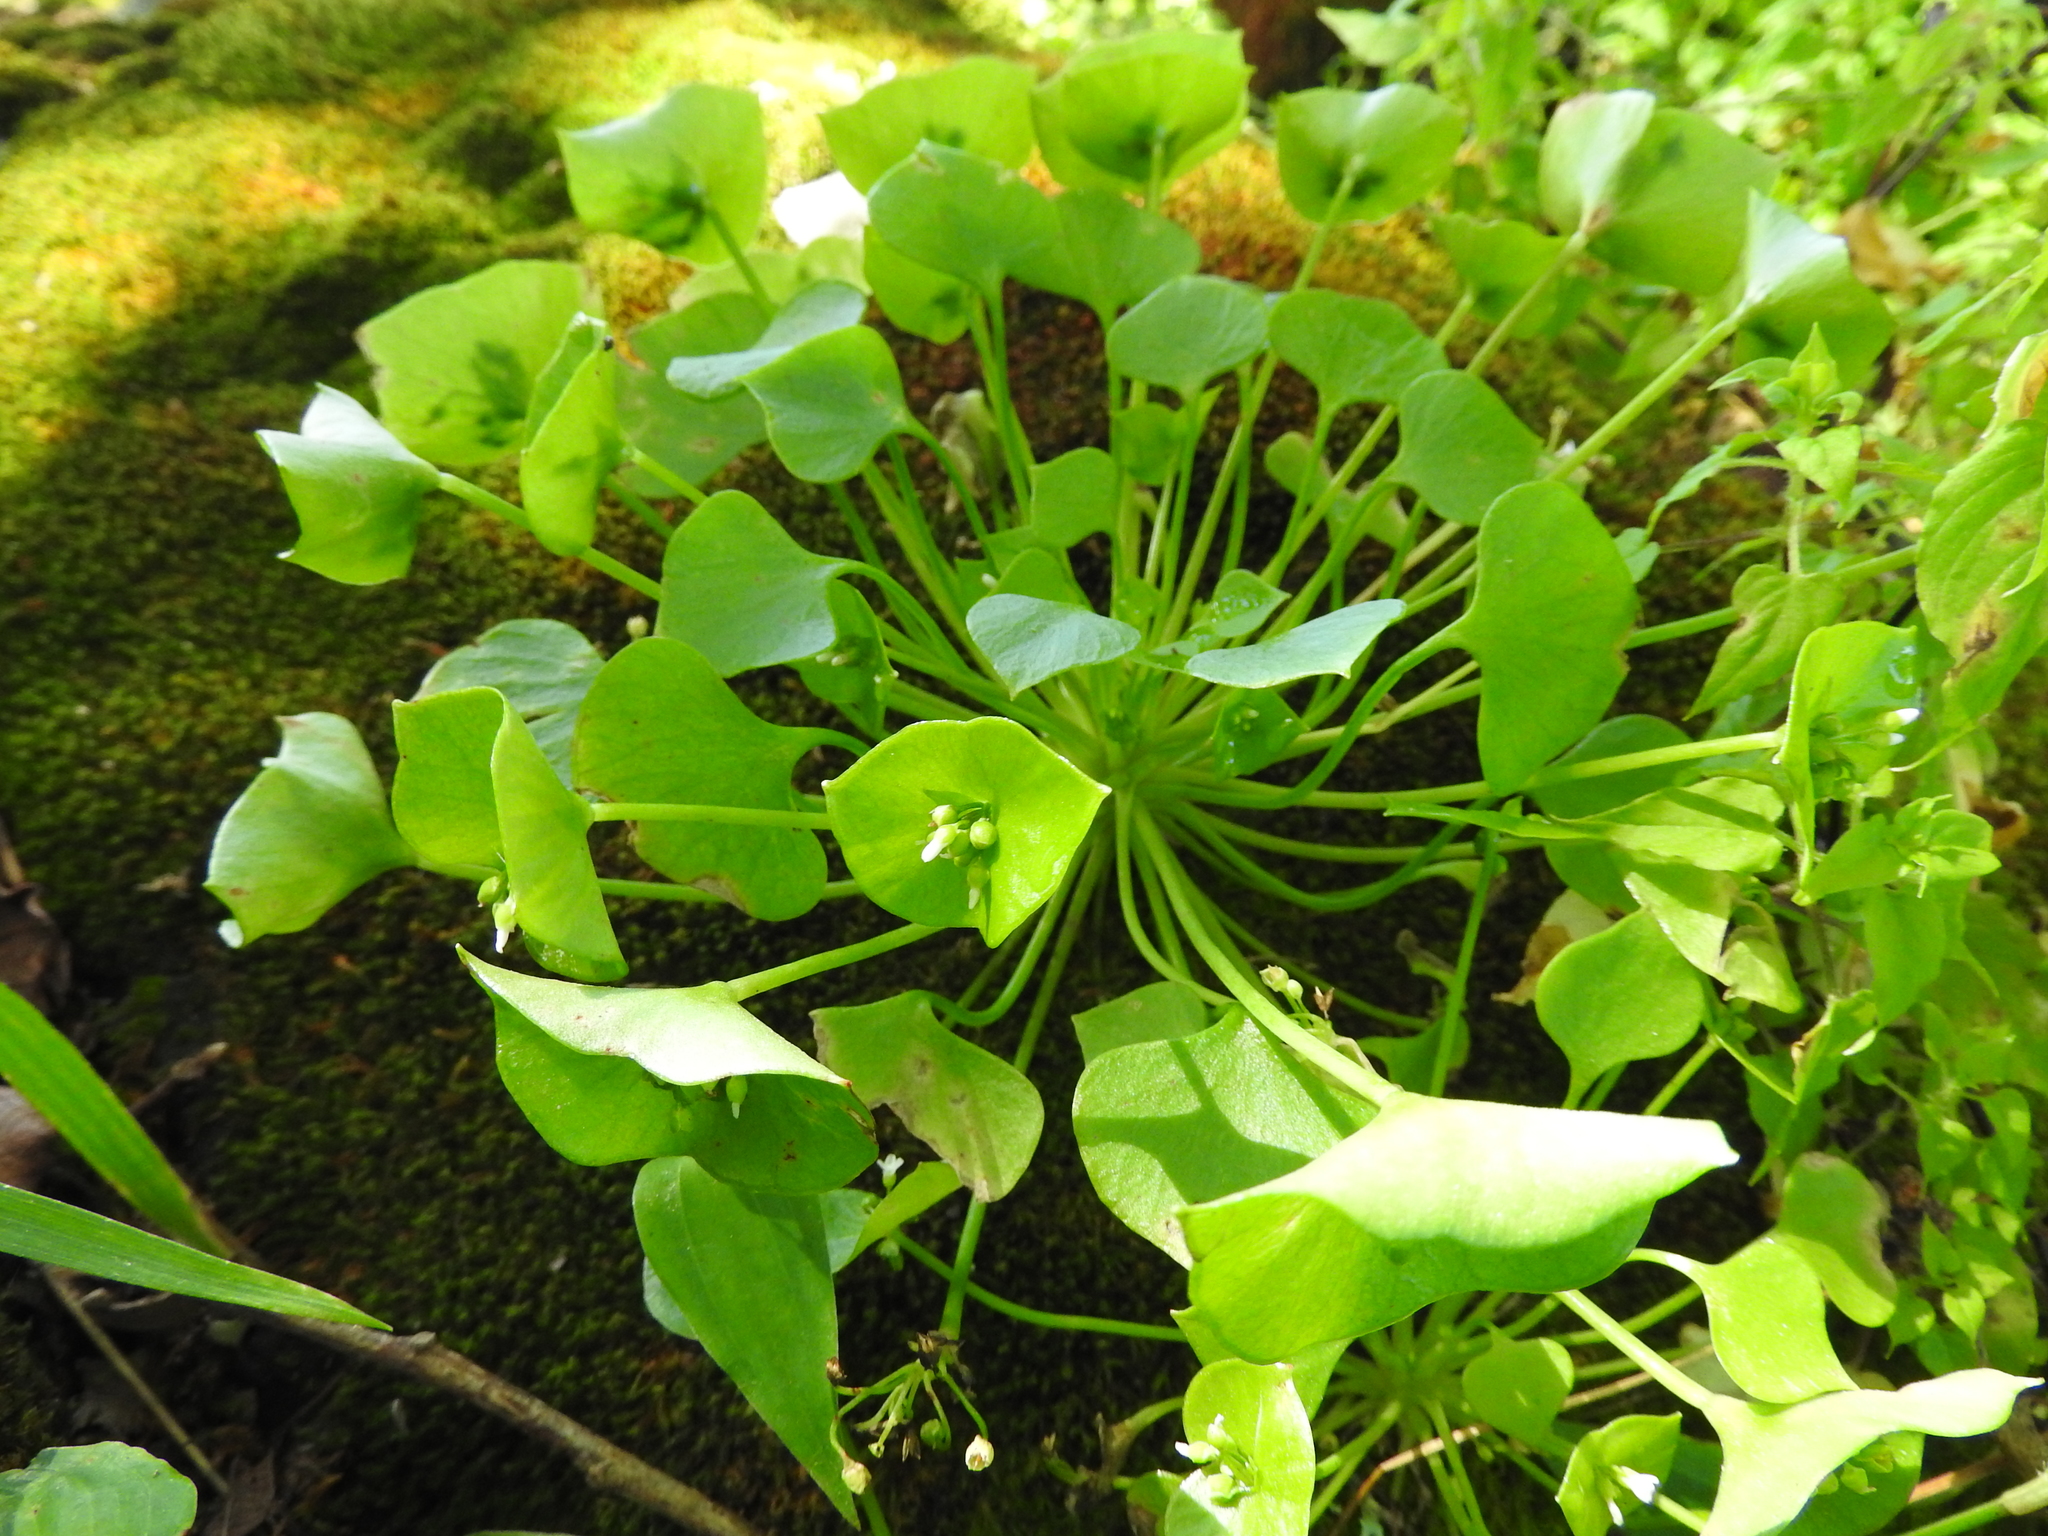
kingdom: Plantae
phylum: Tracheophyta
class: Magnoliopsida
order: Caryophyllales
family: Montiaceae
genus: Claytonia
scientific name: Claytonia perfoliata
